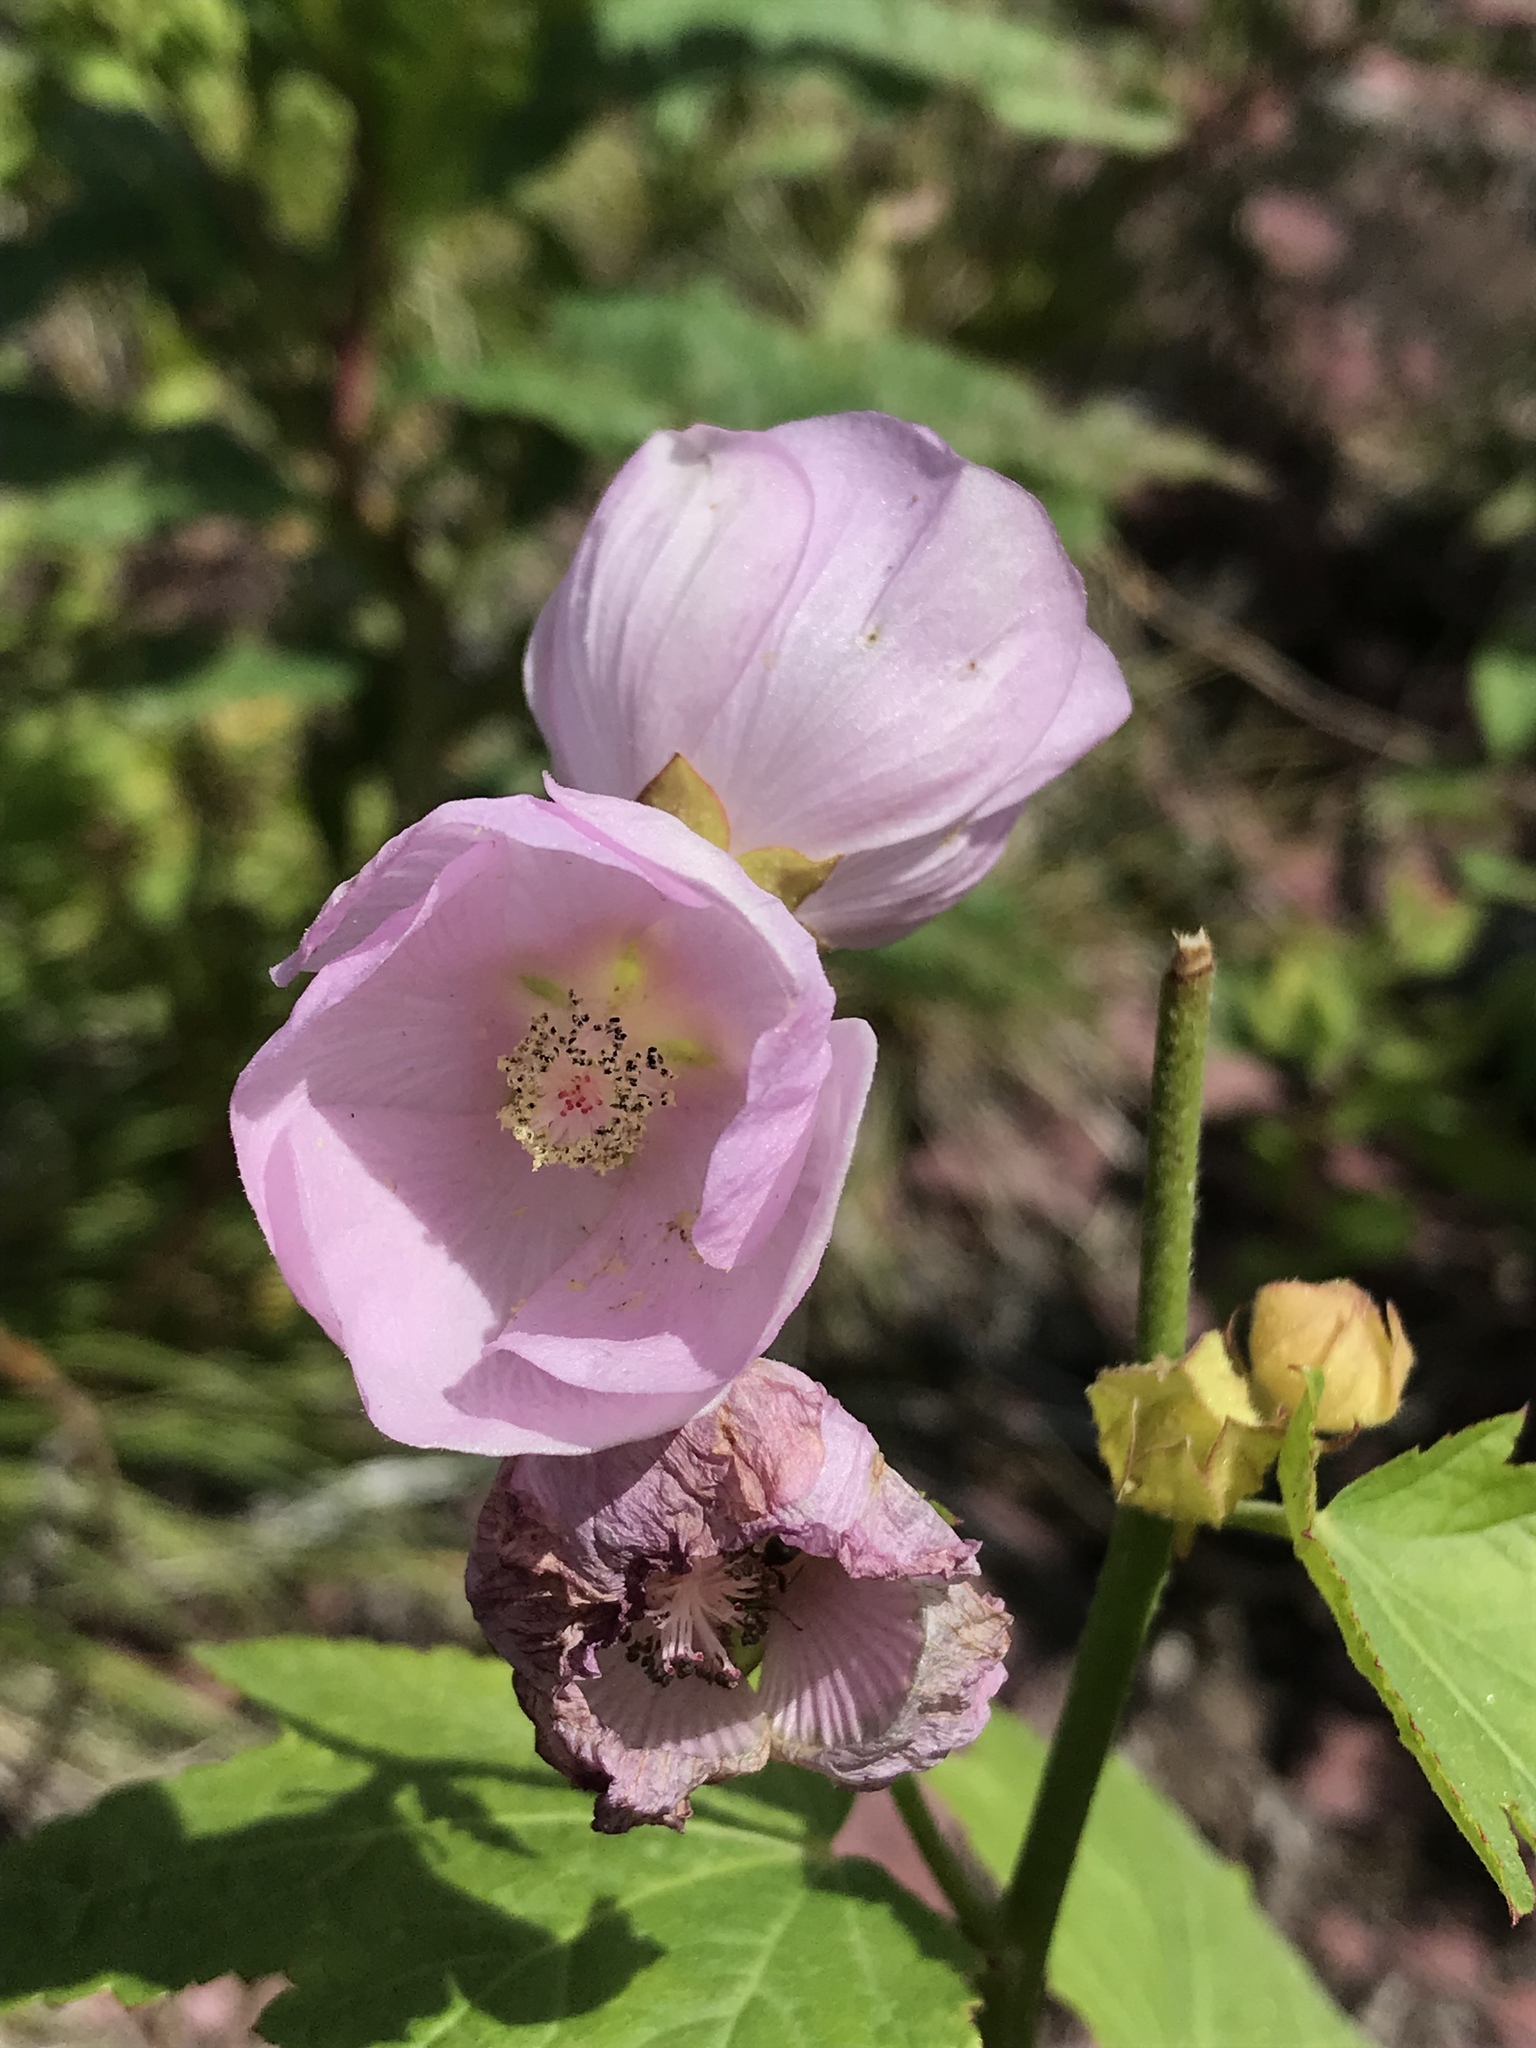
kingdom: Plantae
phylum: Tracheophyta
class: Magnoliopsida
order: Malvales
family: Malvaceae
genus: Iliamna
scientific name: Iliamna rivularis
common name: Wild hollyhock
